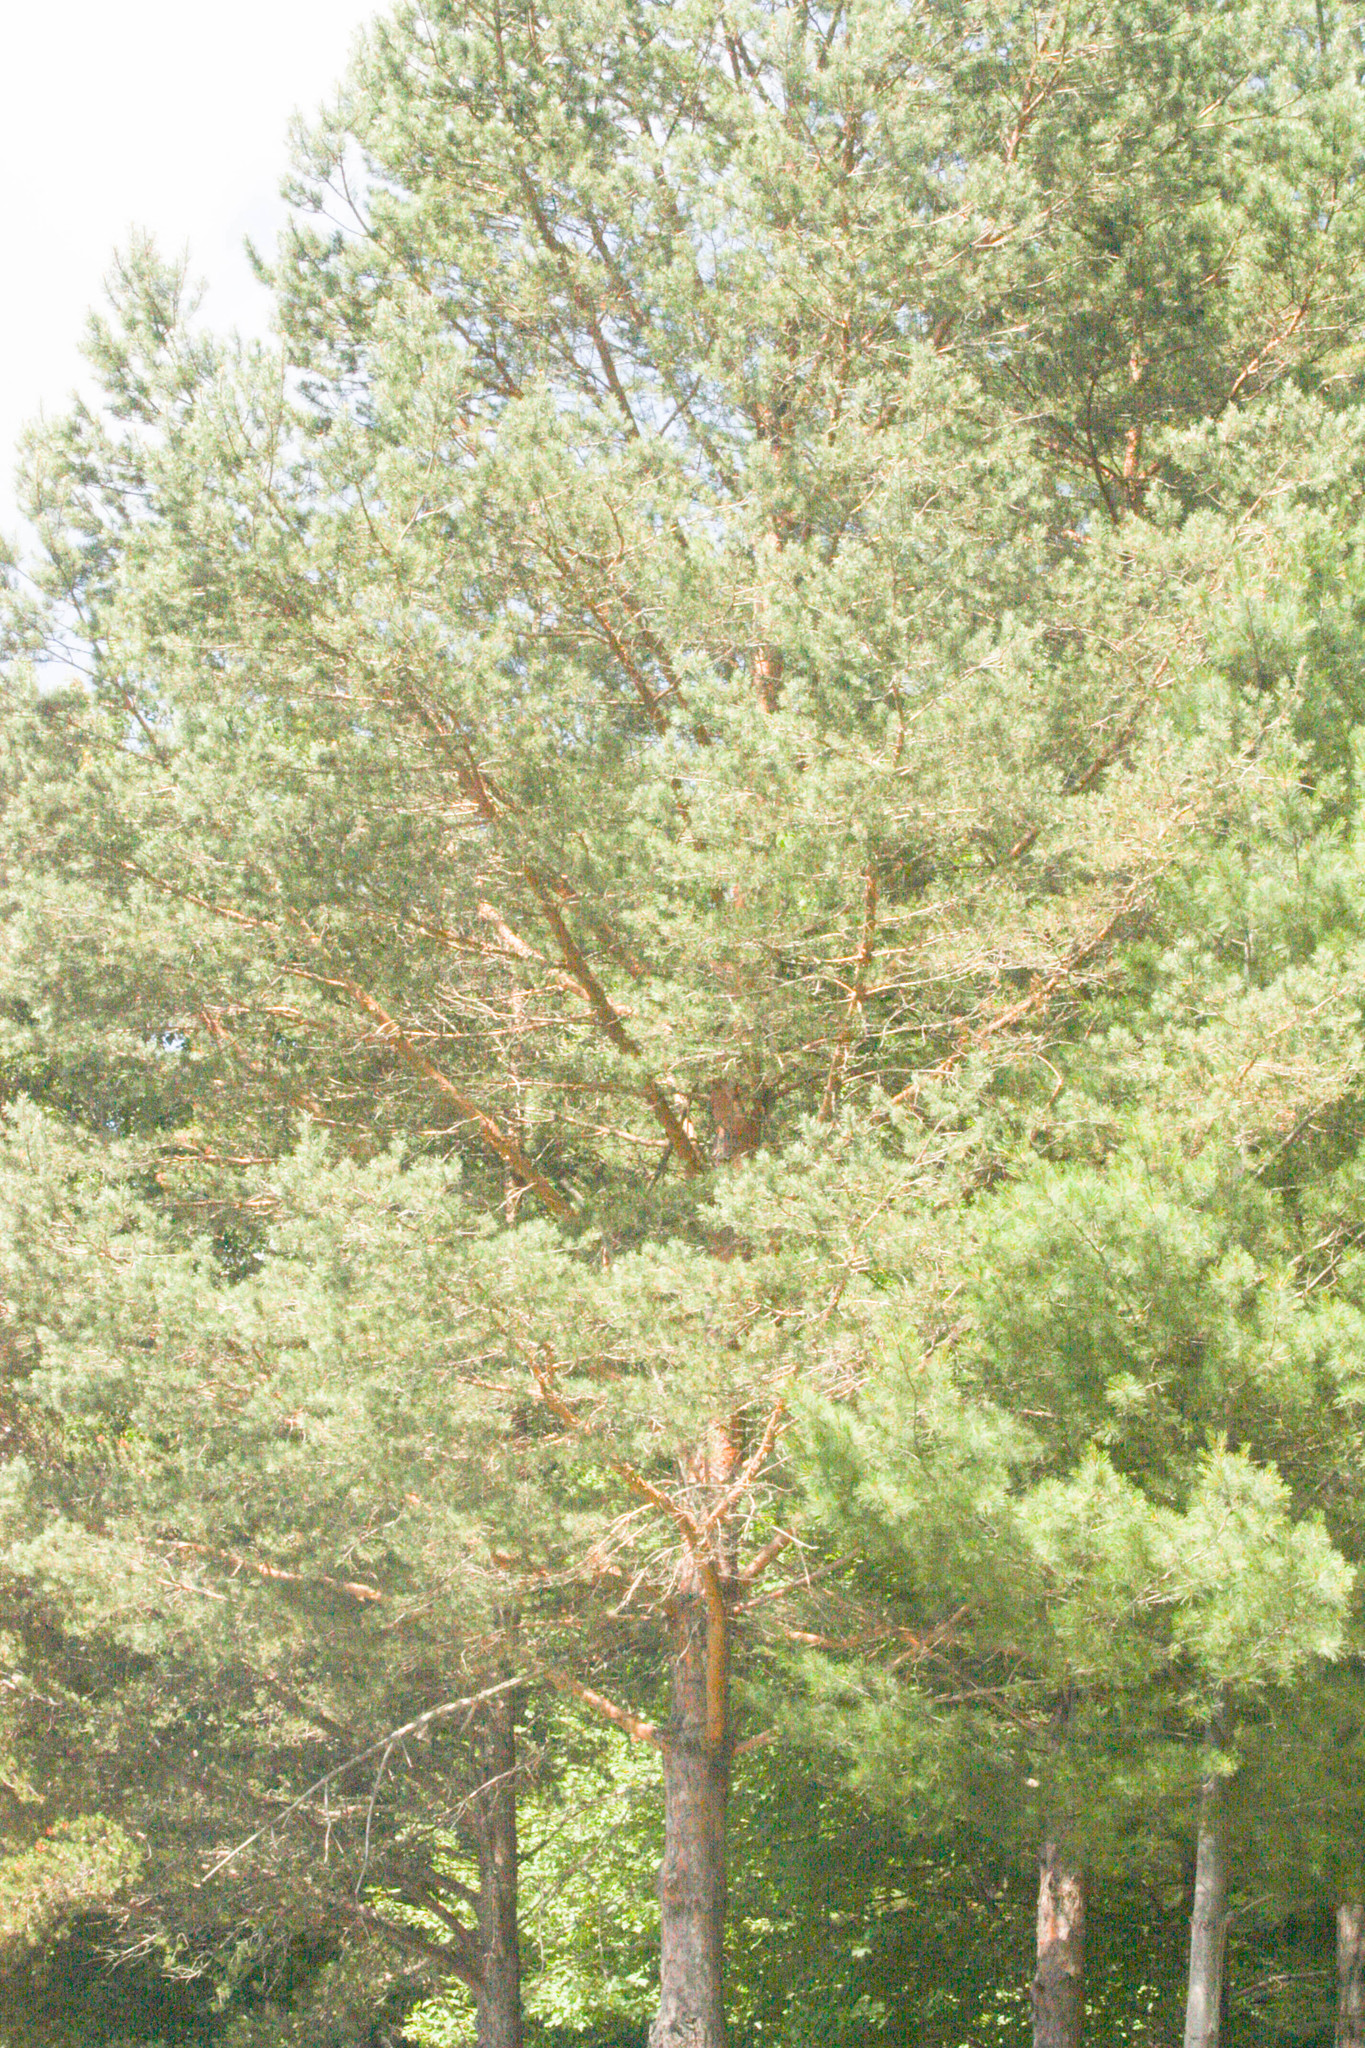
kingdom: Plantae
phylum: Tracheophyta
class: Pinopsida
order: Pinales
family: Pinaceae
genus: Pinus
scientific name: Pinus sylvestris
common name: Scots pine
